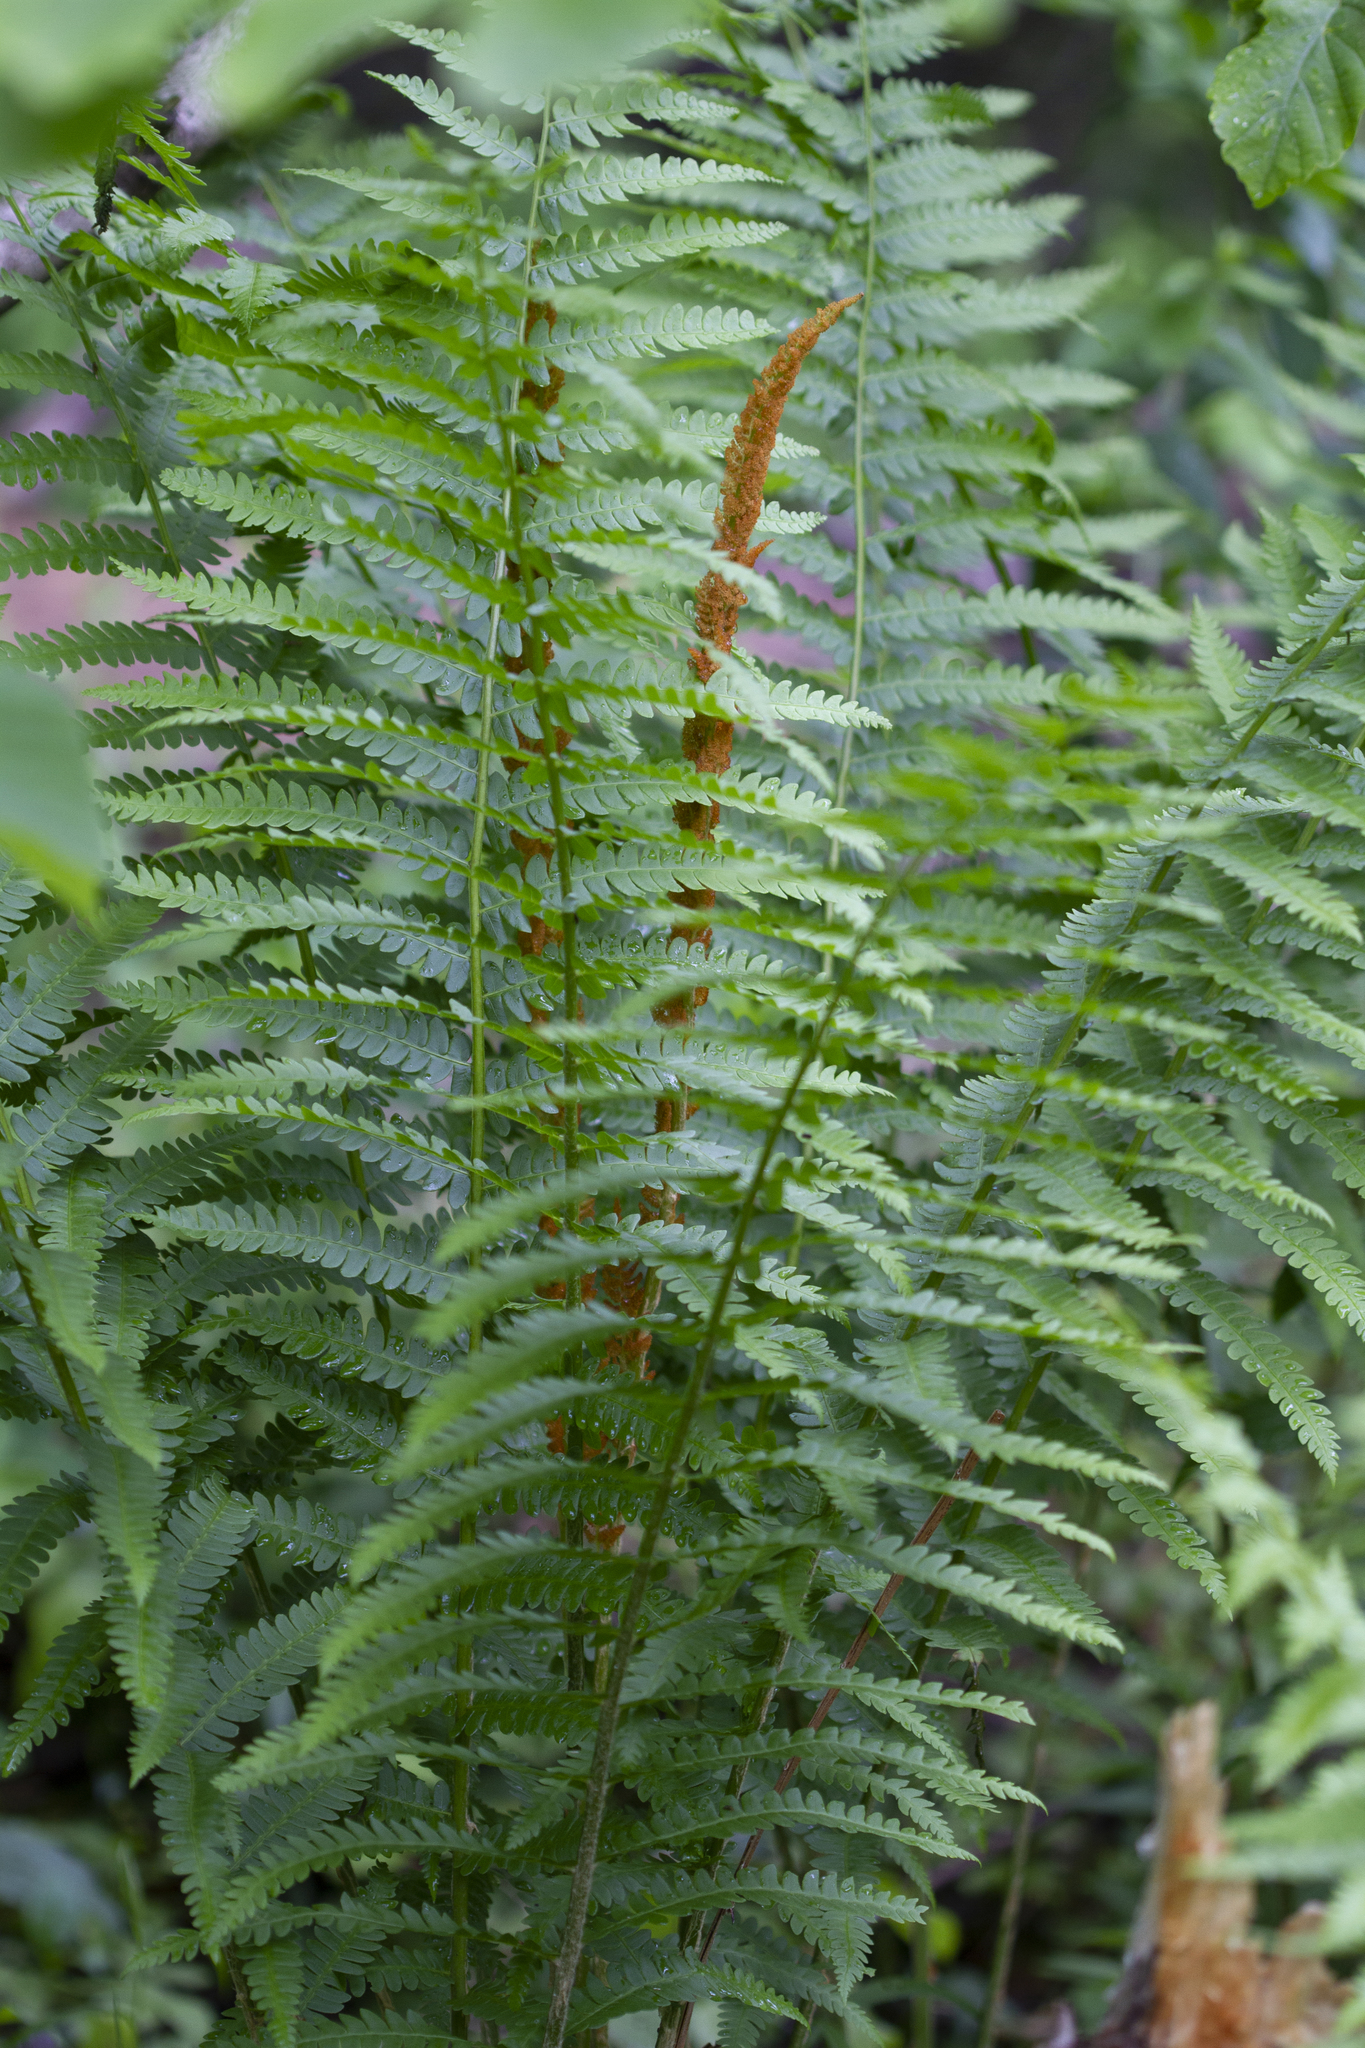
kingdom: Plantae
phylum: Tracheophyta
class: Polypodiopsida
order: Osmundales
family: Osmundaceae
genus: Osmundastrum
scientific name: Osmundastrum cinnamomeum
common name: Cinnamon fern
